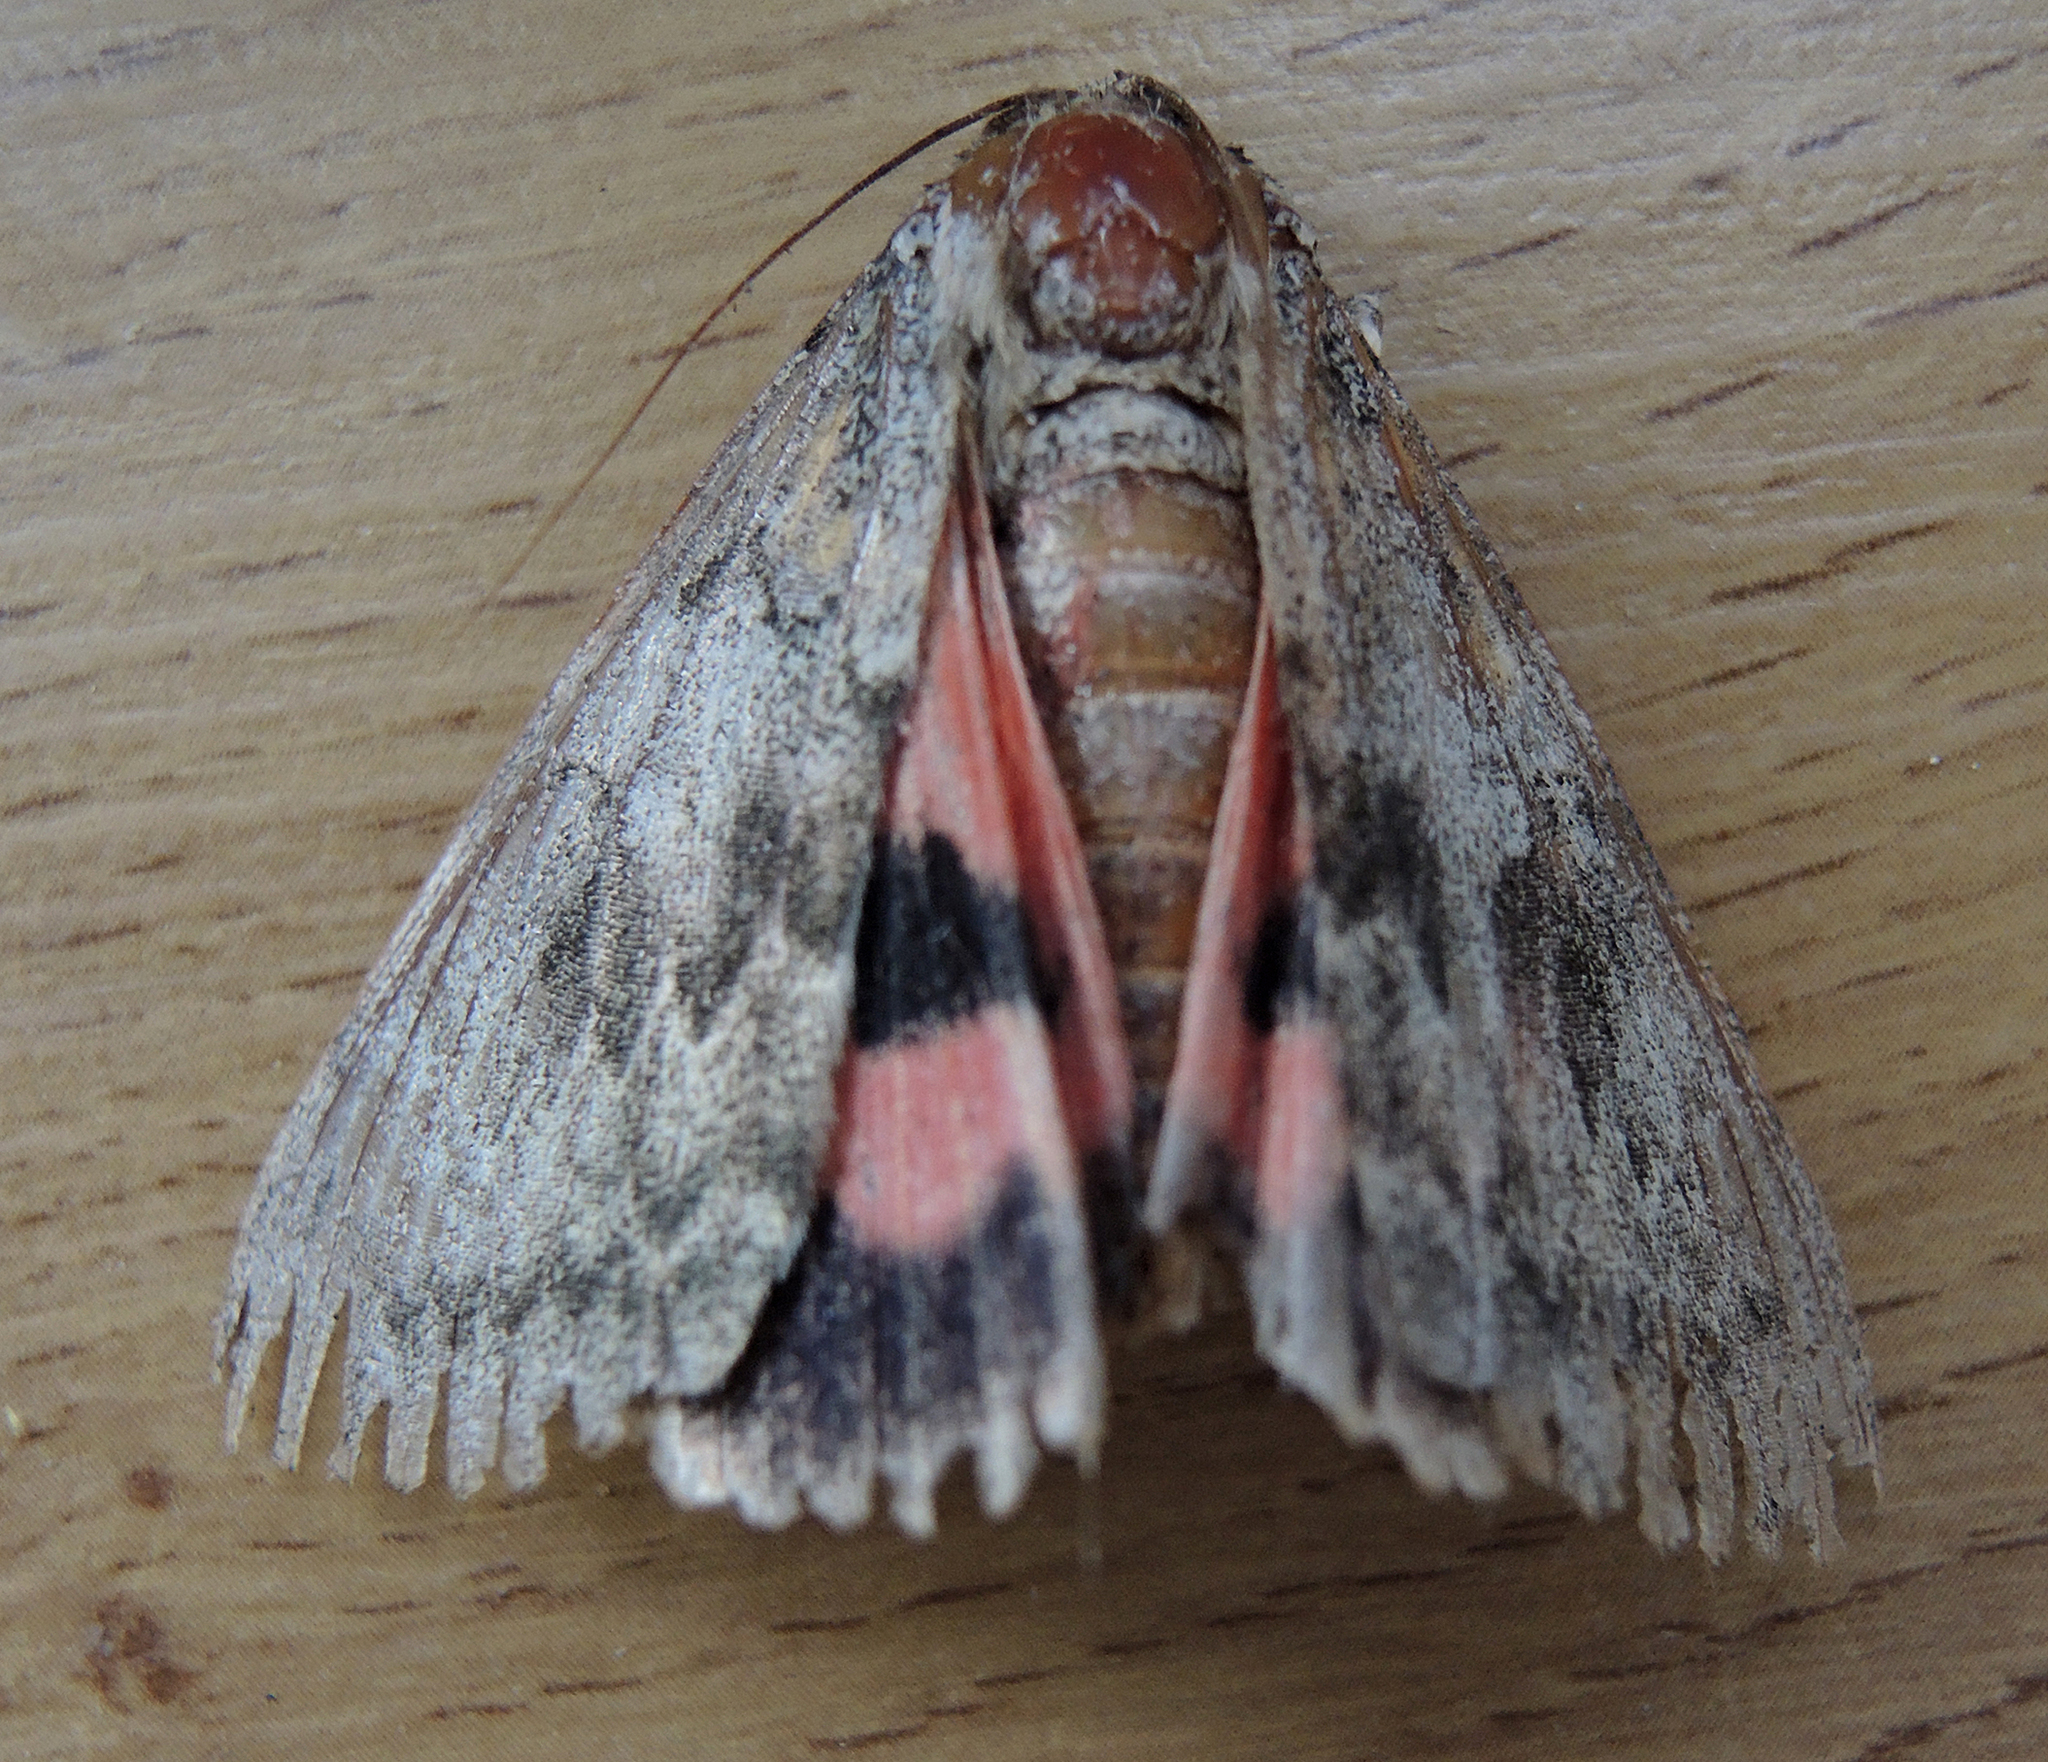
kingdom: Animalia
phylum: Arthropoda
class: Insecta
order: Lepidoptera
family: Erebidae
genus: Catocala
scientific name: Catocala elocata
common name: French red underwing
